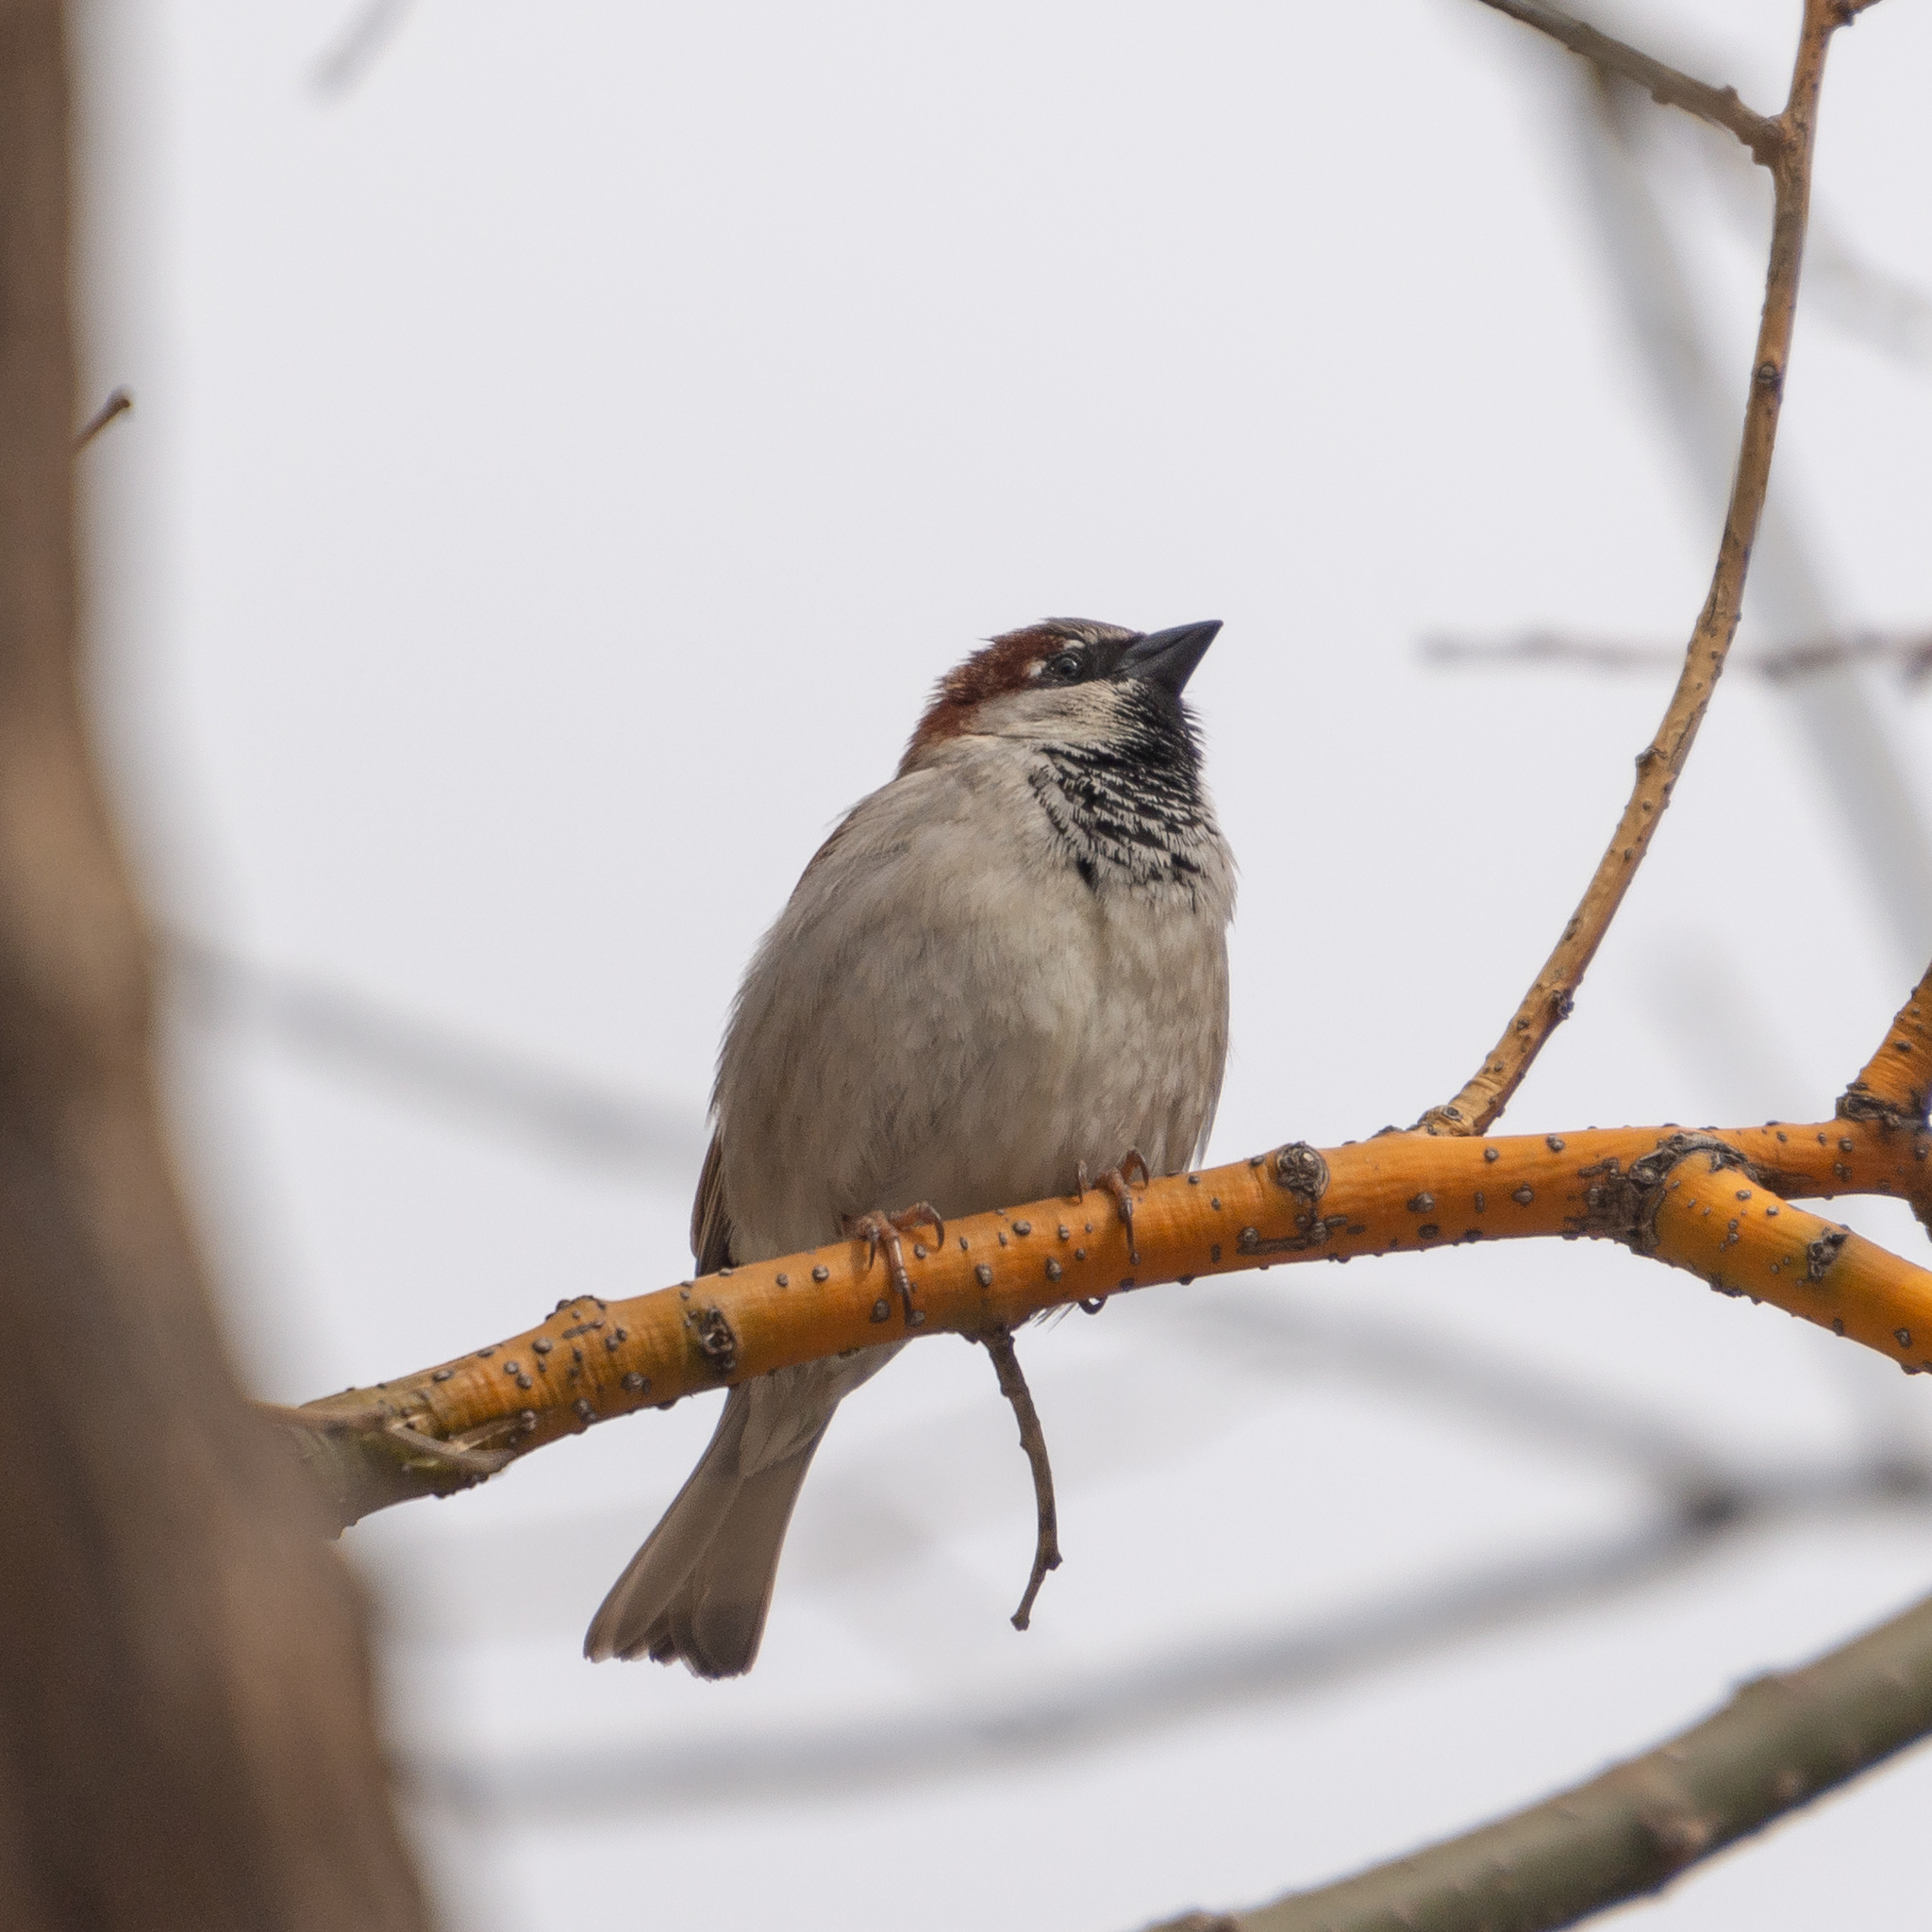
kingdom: Animalia
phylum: Chordata
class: Aves
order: Passeriformes
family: Passeridae
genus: Passer
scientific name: Passer domesticus
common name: House sparrow
